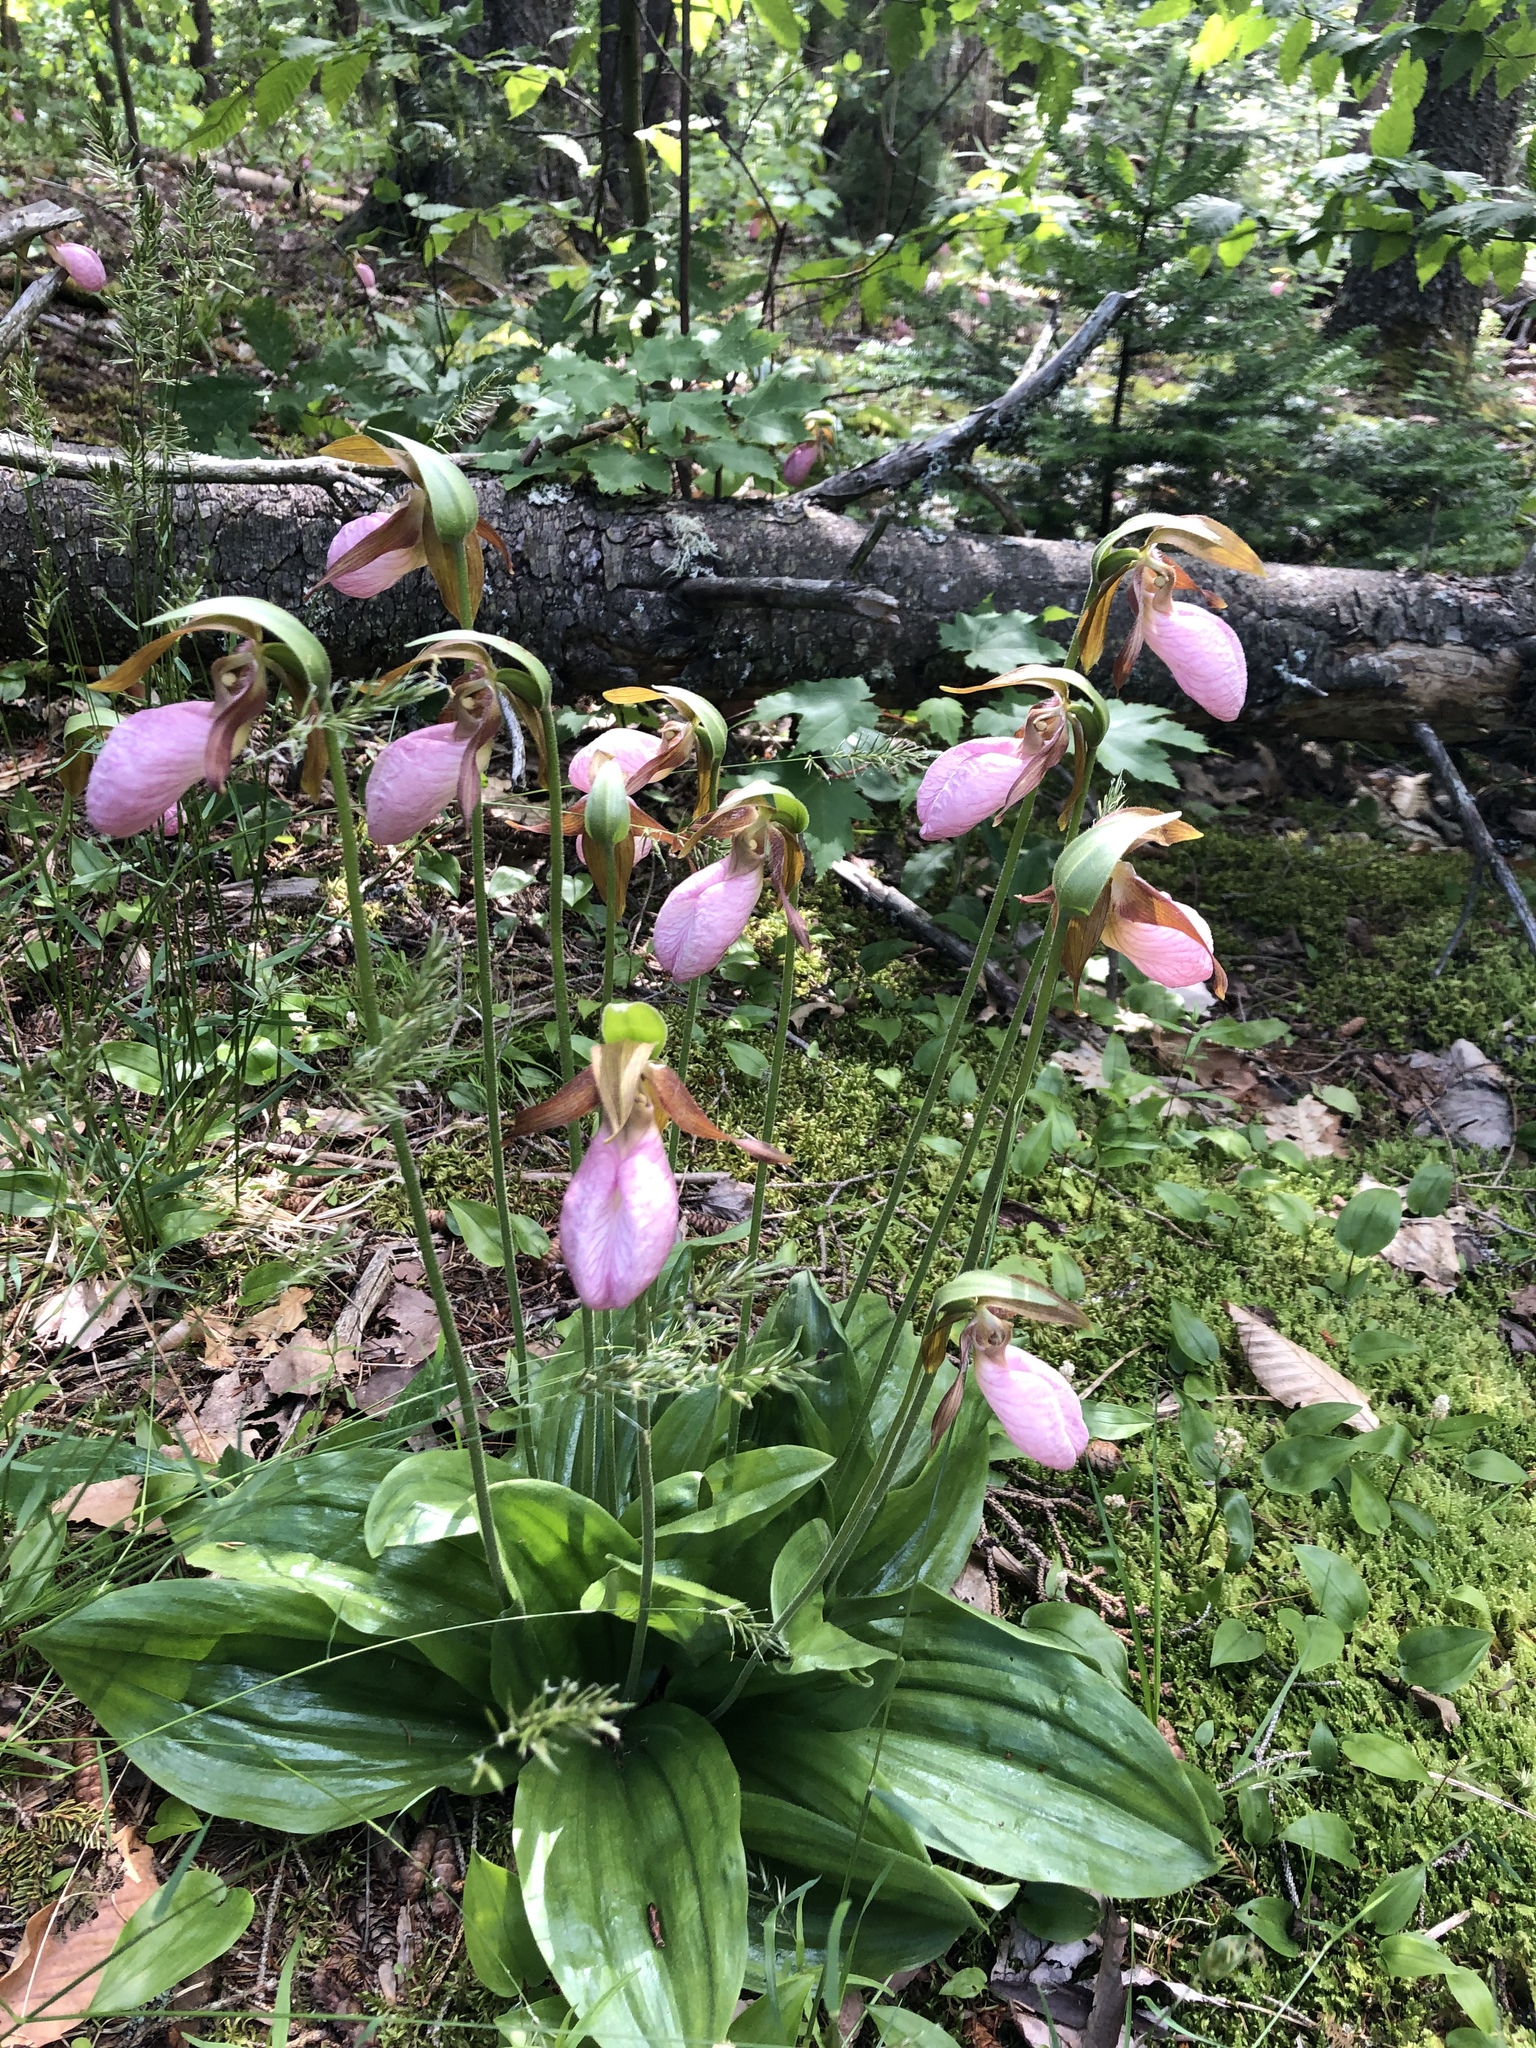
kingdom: Plantae
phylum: Tracheophyta
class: Liliopsida
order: Asparagales
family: Orchidaceae
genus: Cypripedium
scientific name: Cypripedium acaule
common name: Pink lady's-slipper
